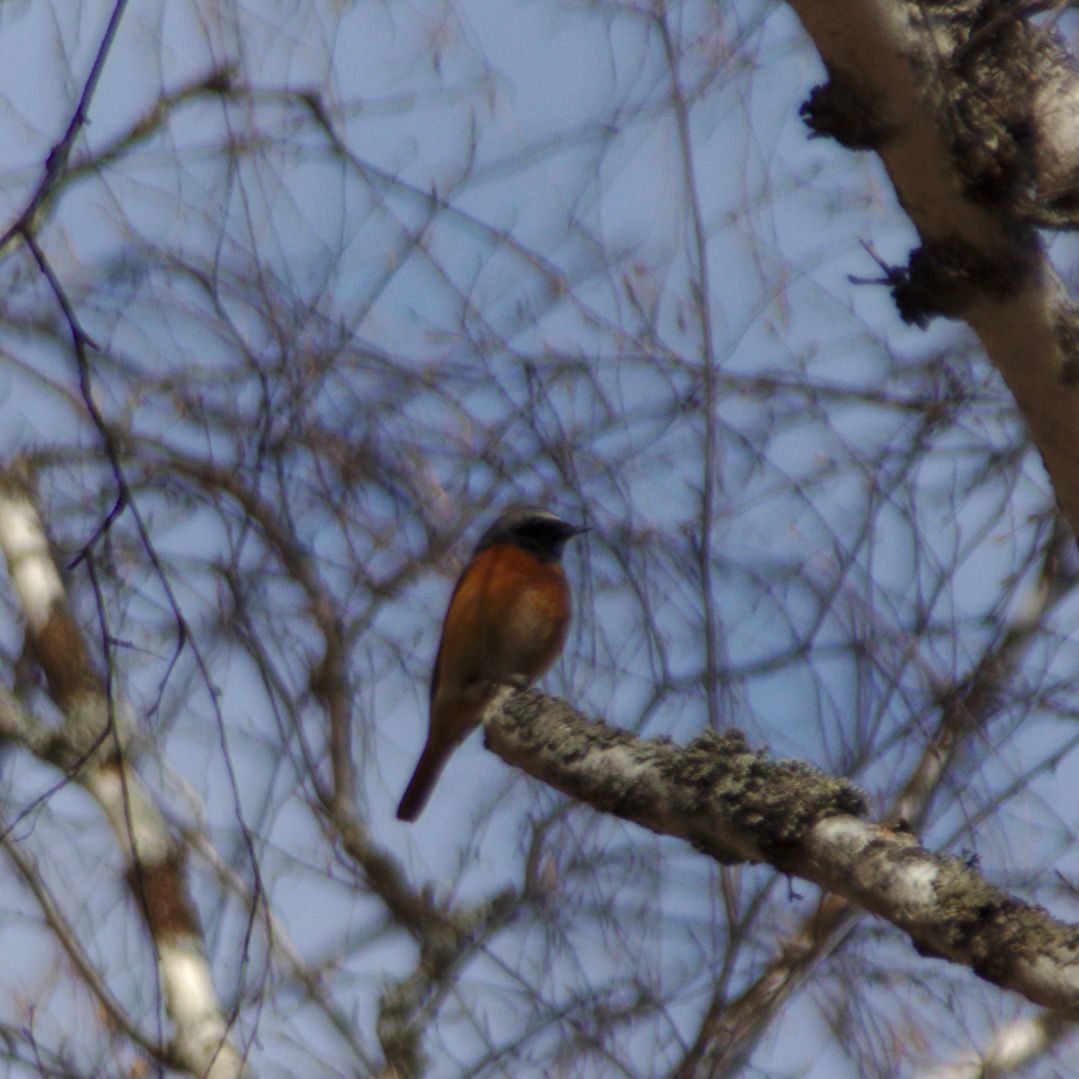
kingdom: Animalia
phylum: Chordata
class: Aves
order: Passeriformes
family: Muscicapidae
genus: Phoenicurus
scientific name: Phoenicurus phoenicurus
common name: Common redstart
